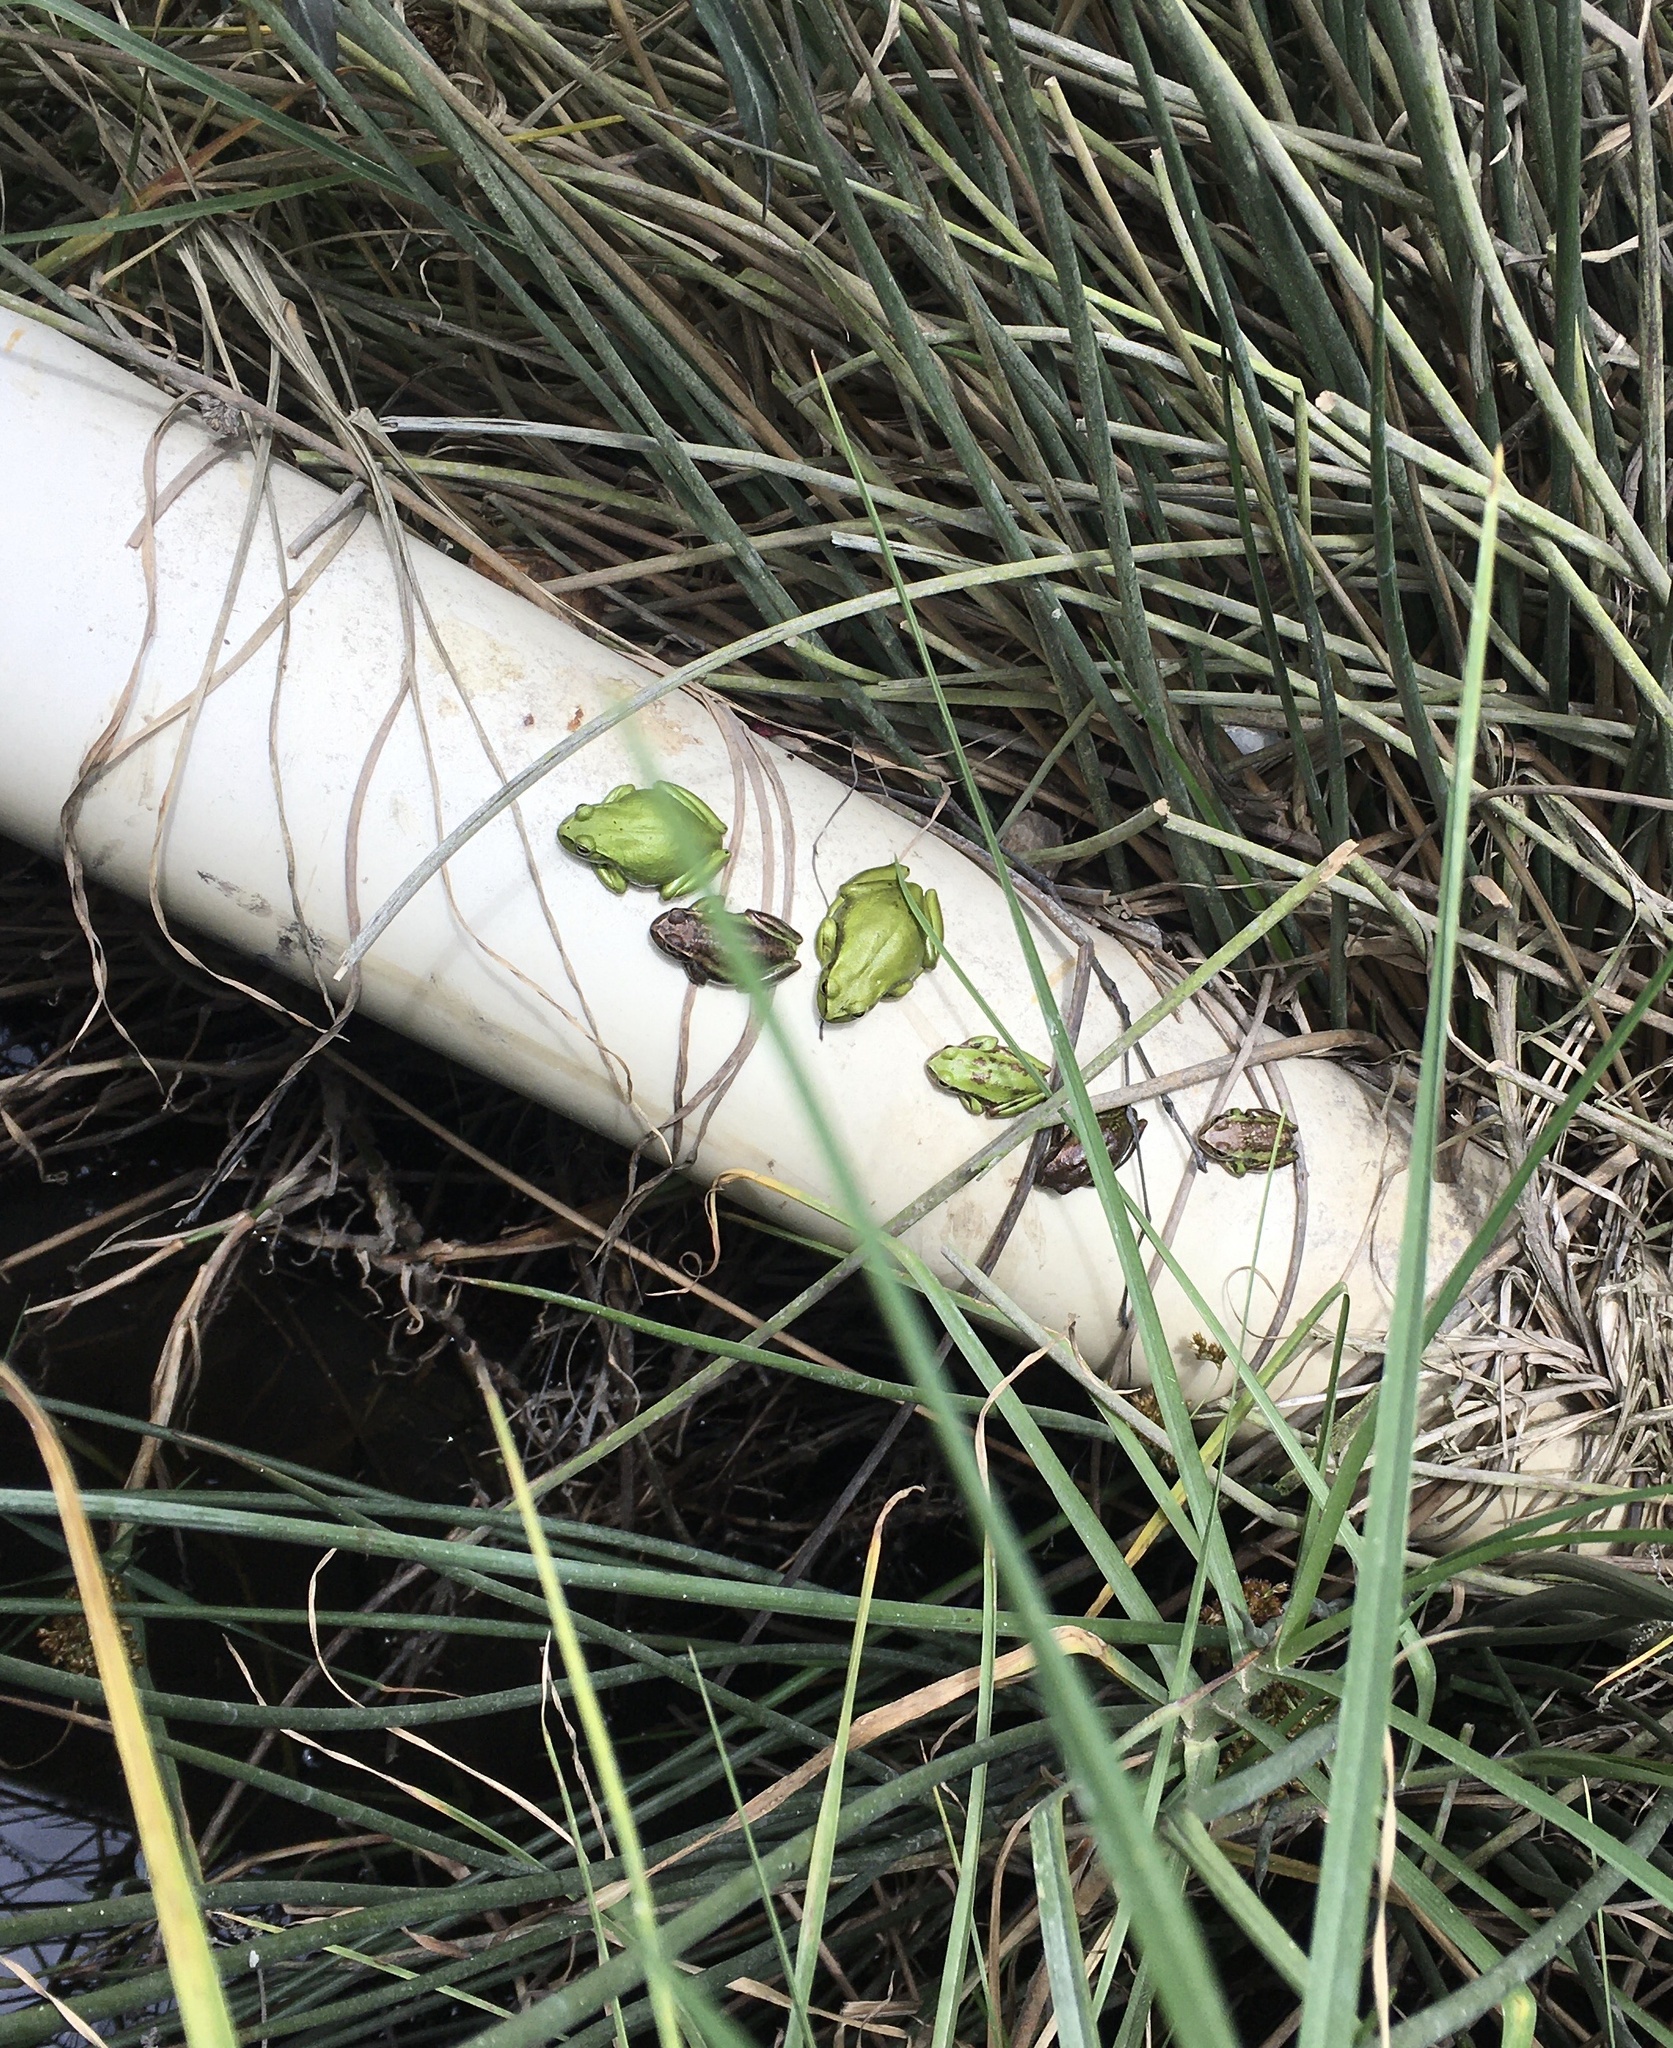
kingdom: Animalia
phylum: Chordata
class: Amphibia
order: Anura
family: Hylidae
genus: Dendropsophus
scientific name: Dendropsophus molitor
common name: Green dotted treefrog
